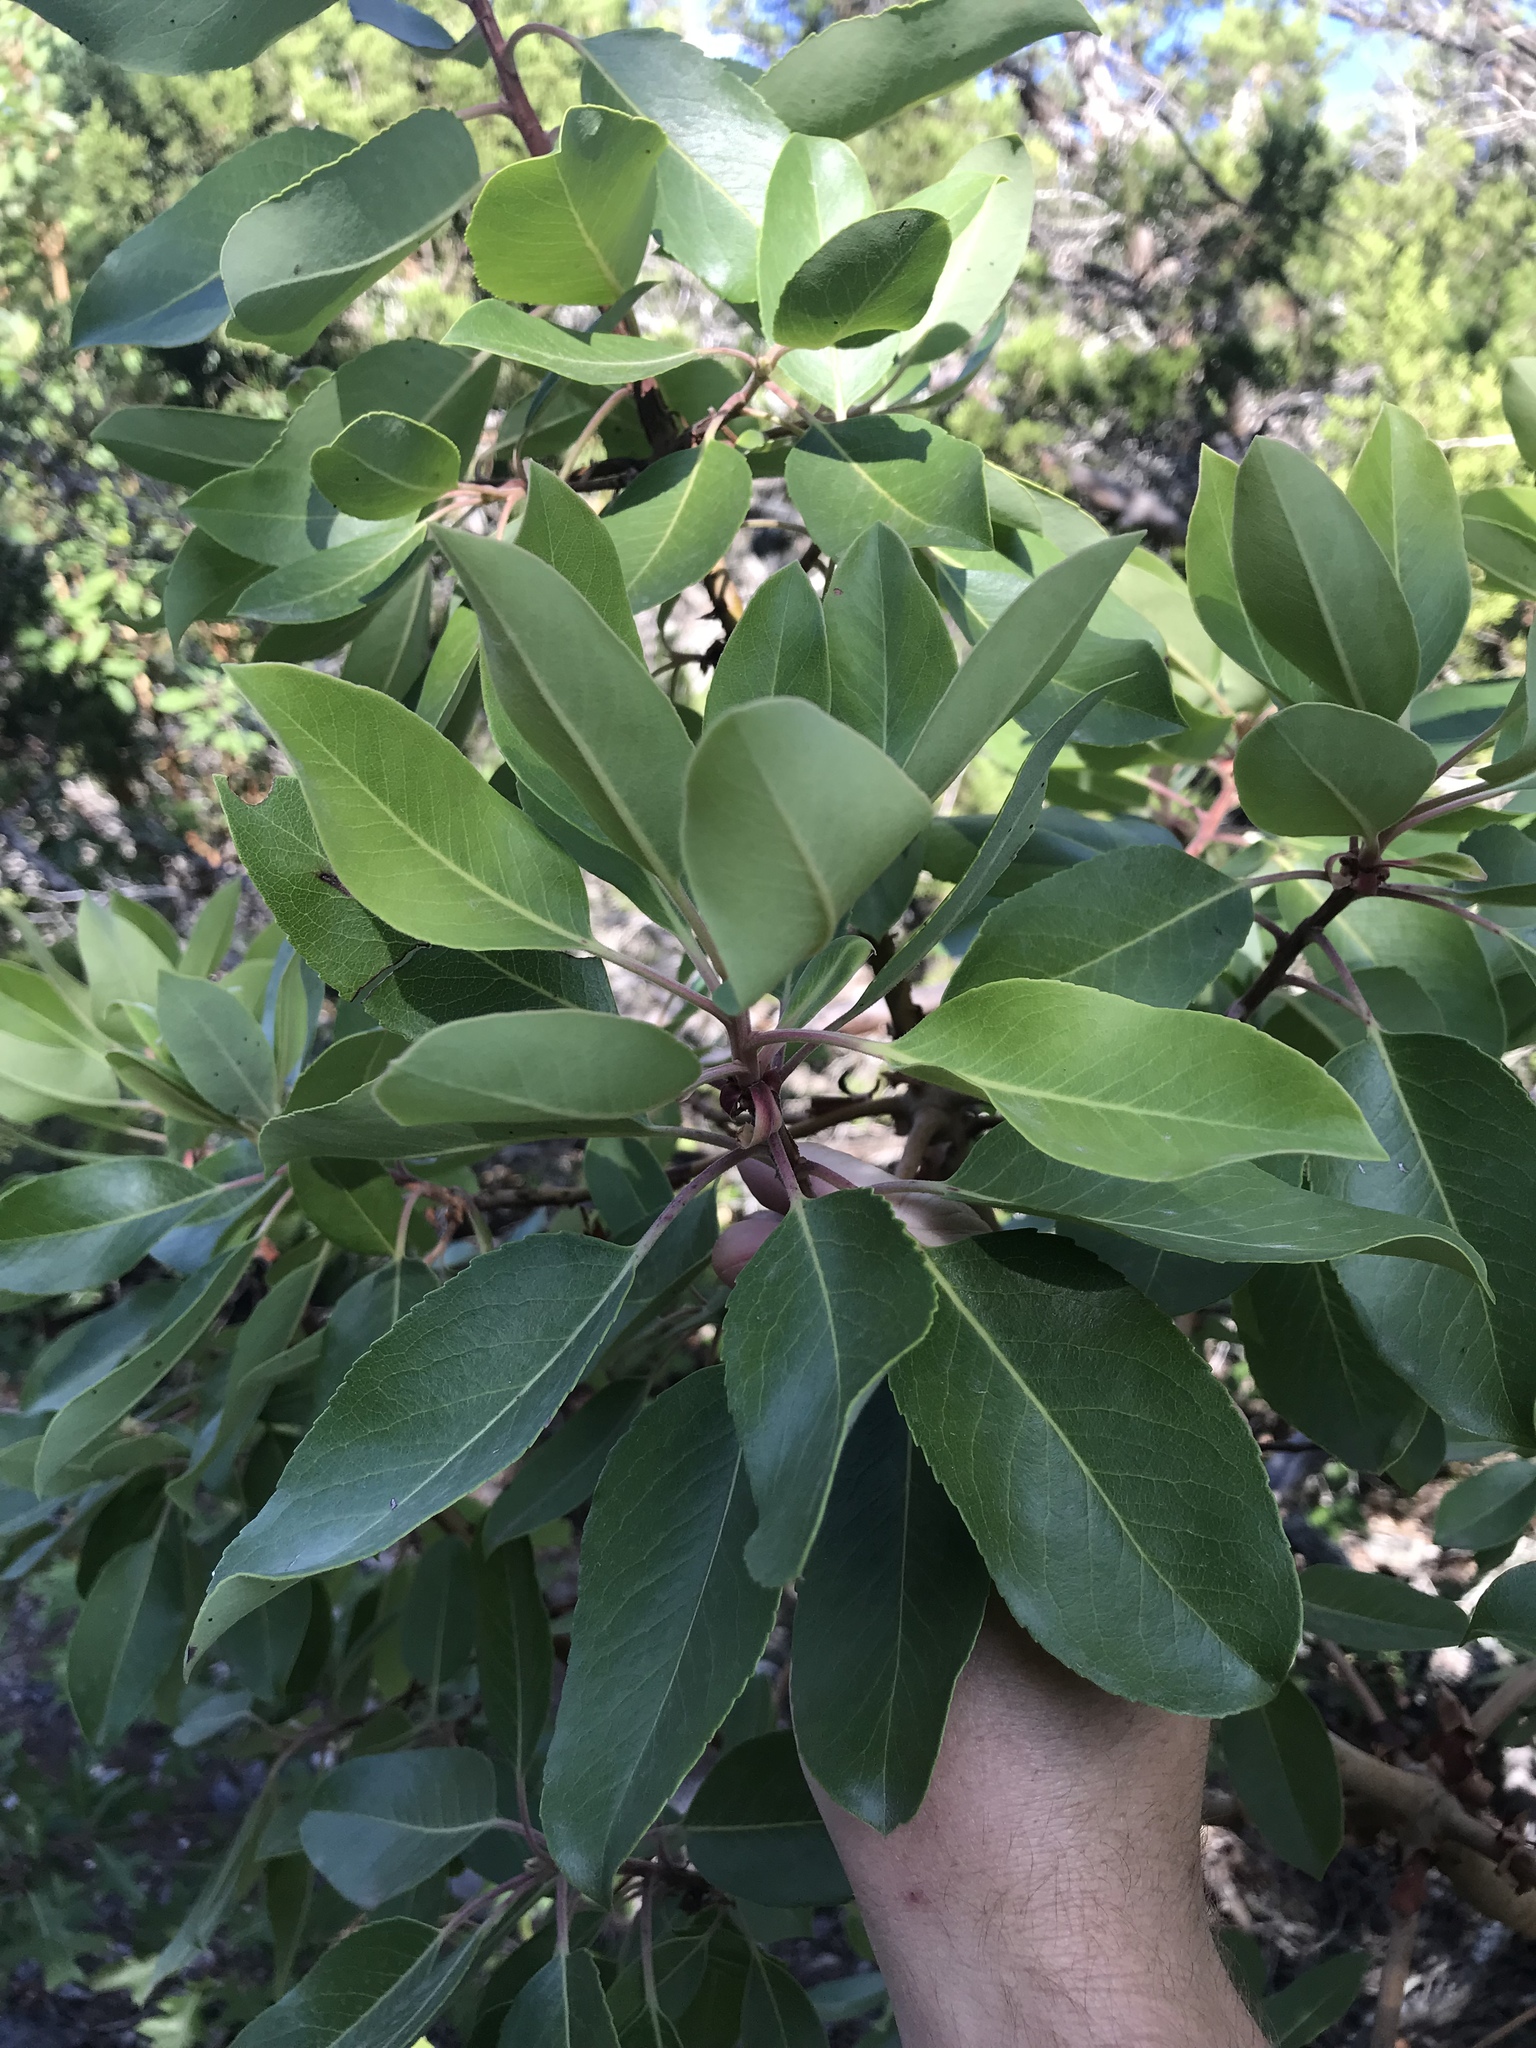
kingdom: Plantae
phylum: Tracheophyta
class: Magnoliopsida
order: Ericales
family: Ericaceae
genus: Arbutus
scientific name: Arbutus xalapensis
